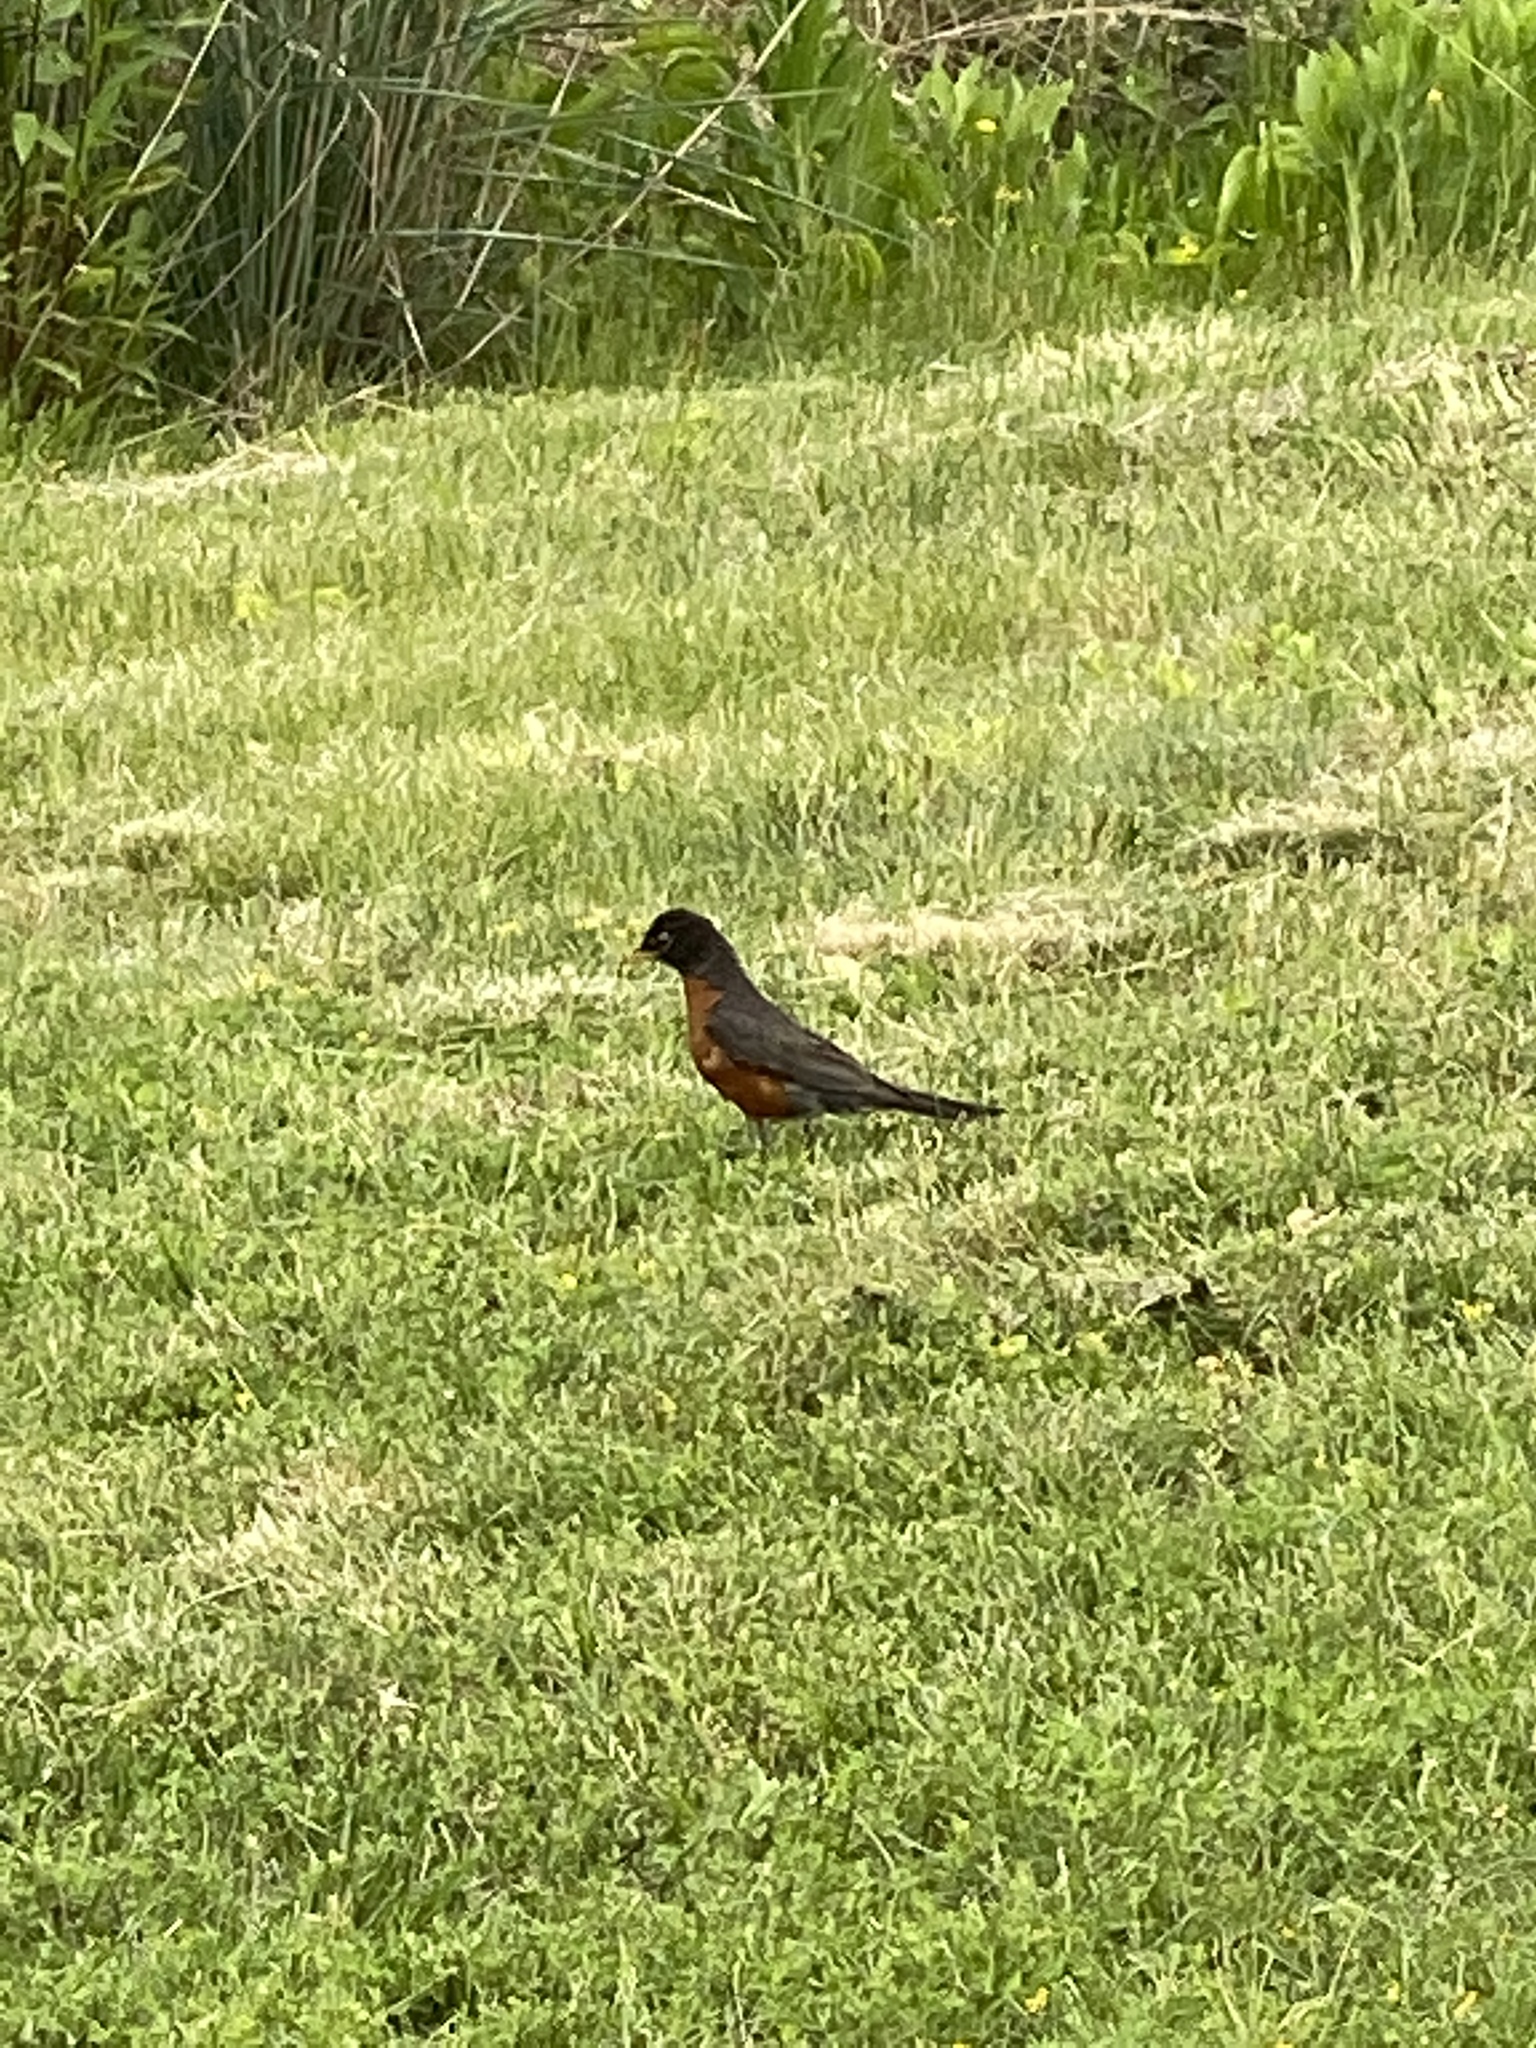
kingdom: Animalia
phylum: Chordata
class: Aves
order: Passeriformes
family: Turdidae
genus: Turdus
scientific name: Turdus migratorius
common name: American robin
